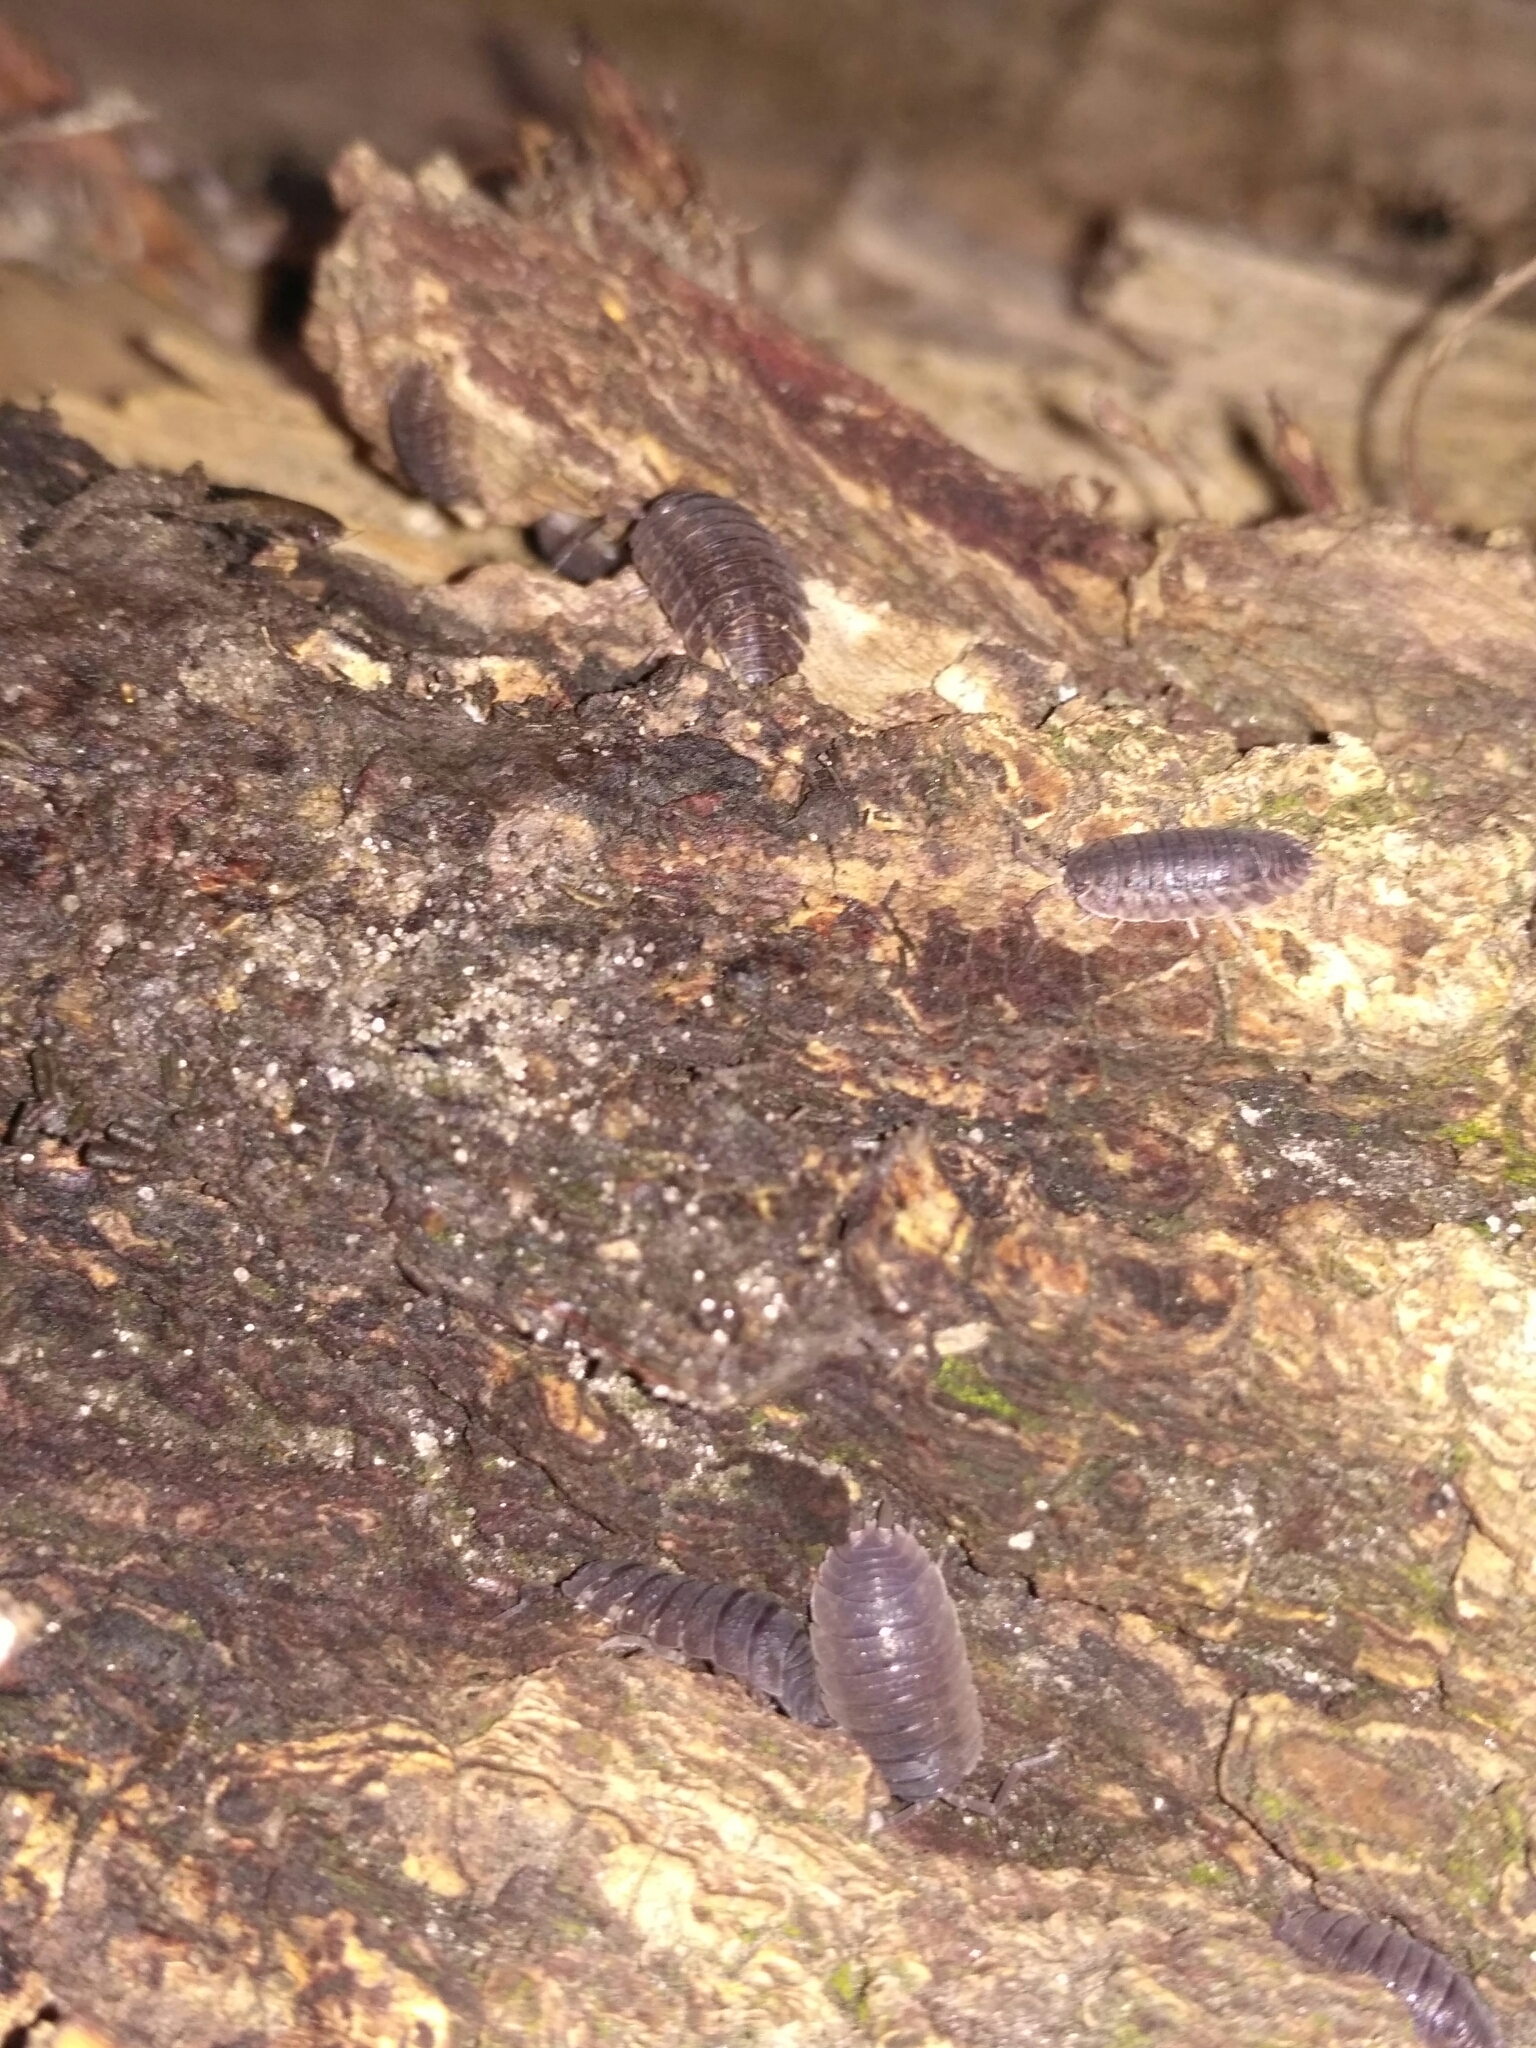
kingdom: Animalia
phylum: Arthropoda
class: Malacostraca
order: Isopoda
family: Trachelipodidae
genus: Trachelipus
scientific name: Trachelipus rathkii
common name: Isopod
